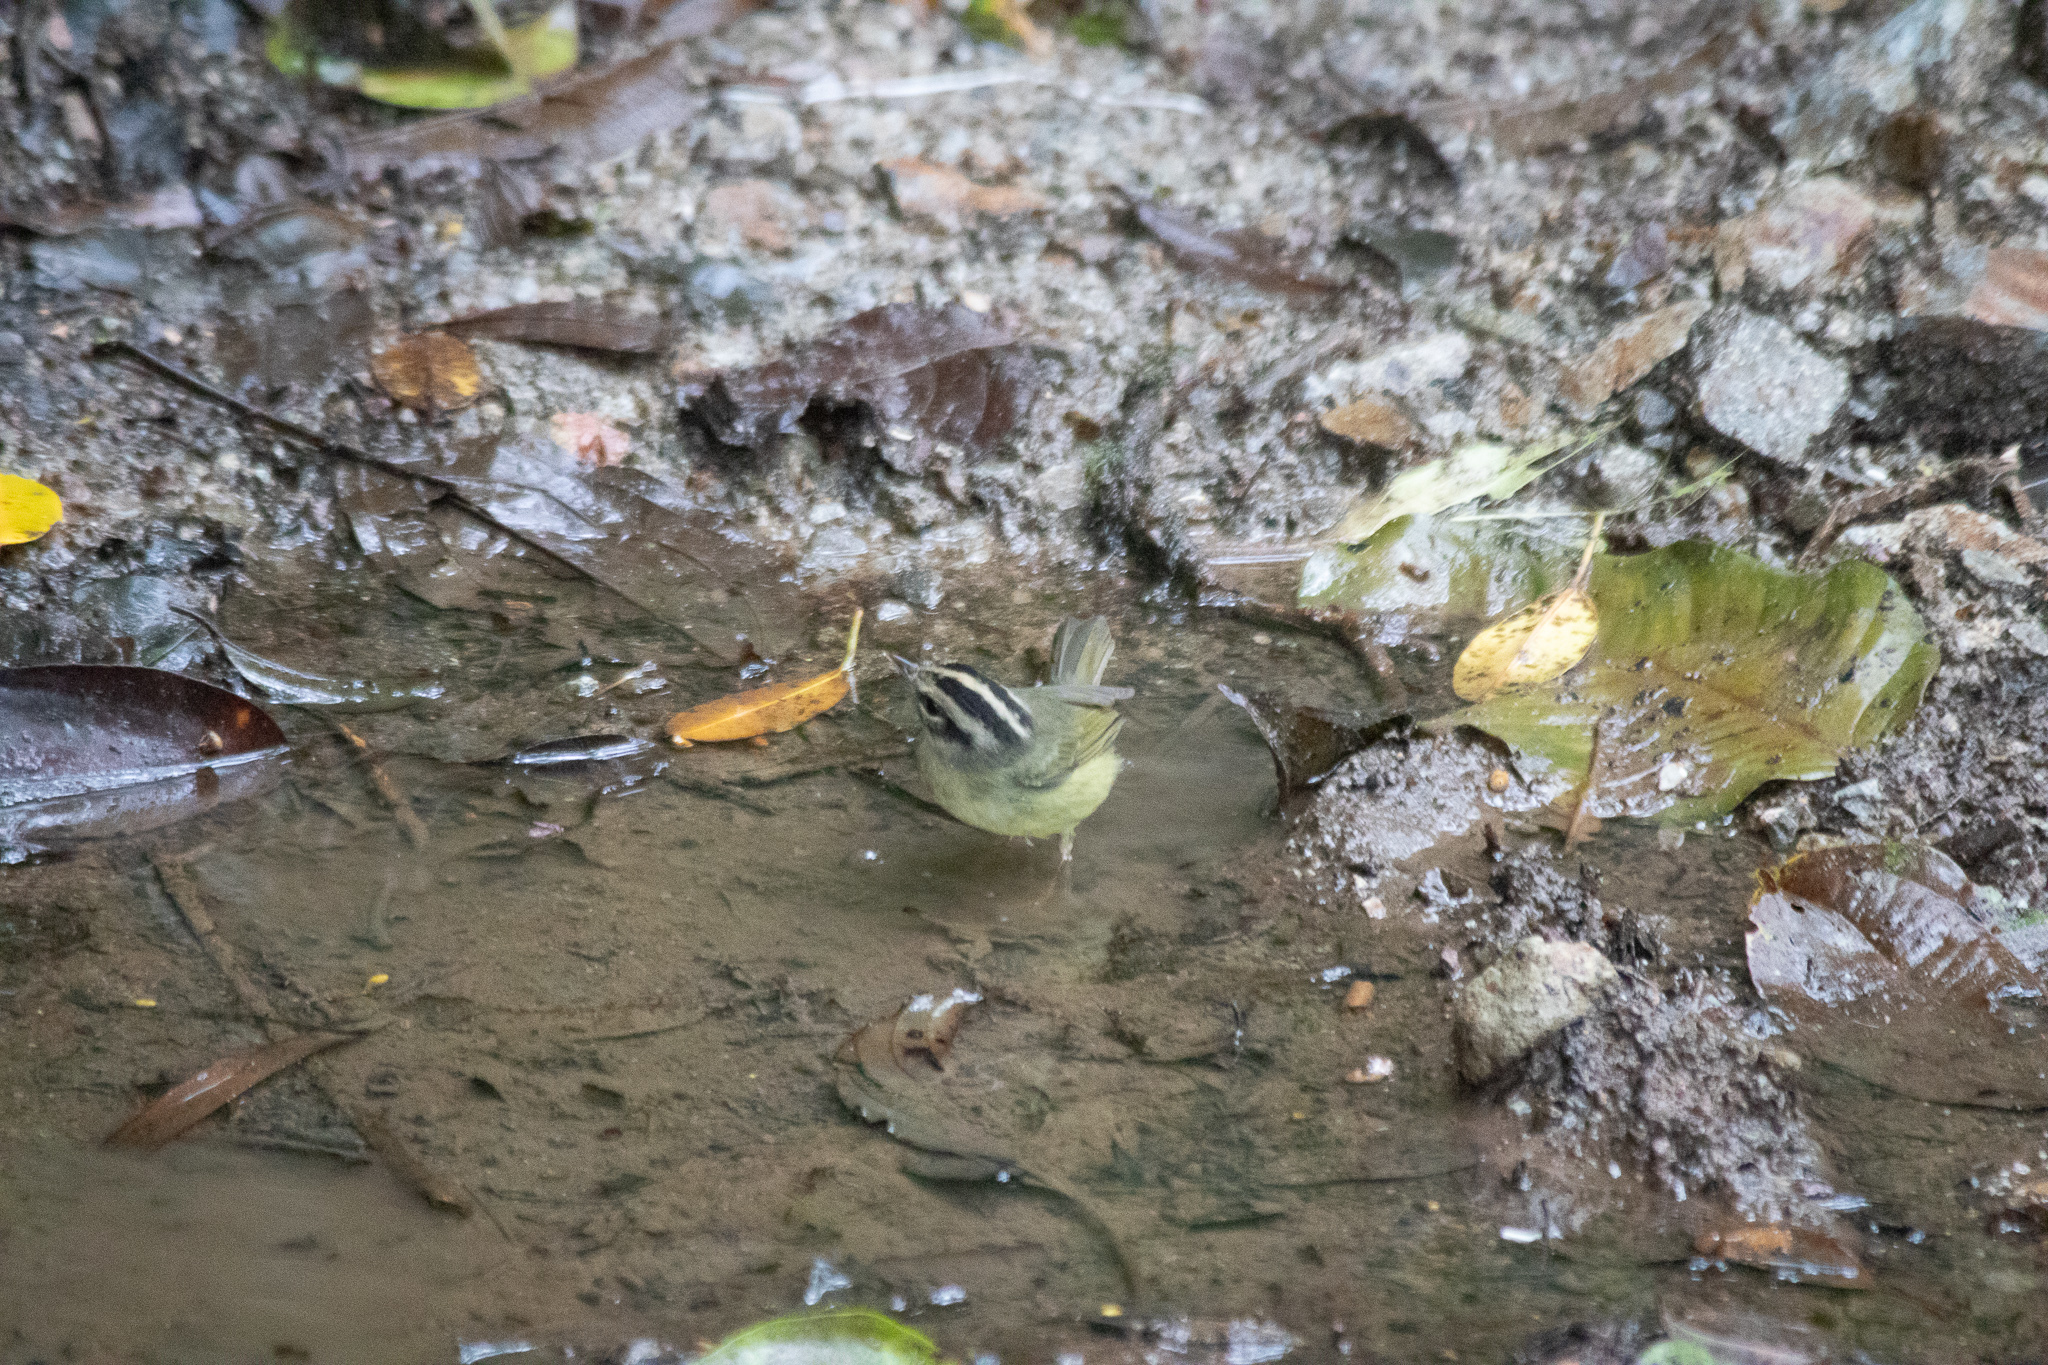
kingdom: Animalia
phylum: Chordata
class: Aves
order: Passeriformes
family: Parulidae
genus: Basileuterus
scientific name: Basileuterus melanotis
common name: Black-eared warbler
